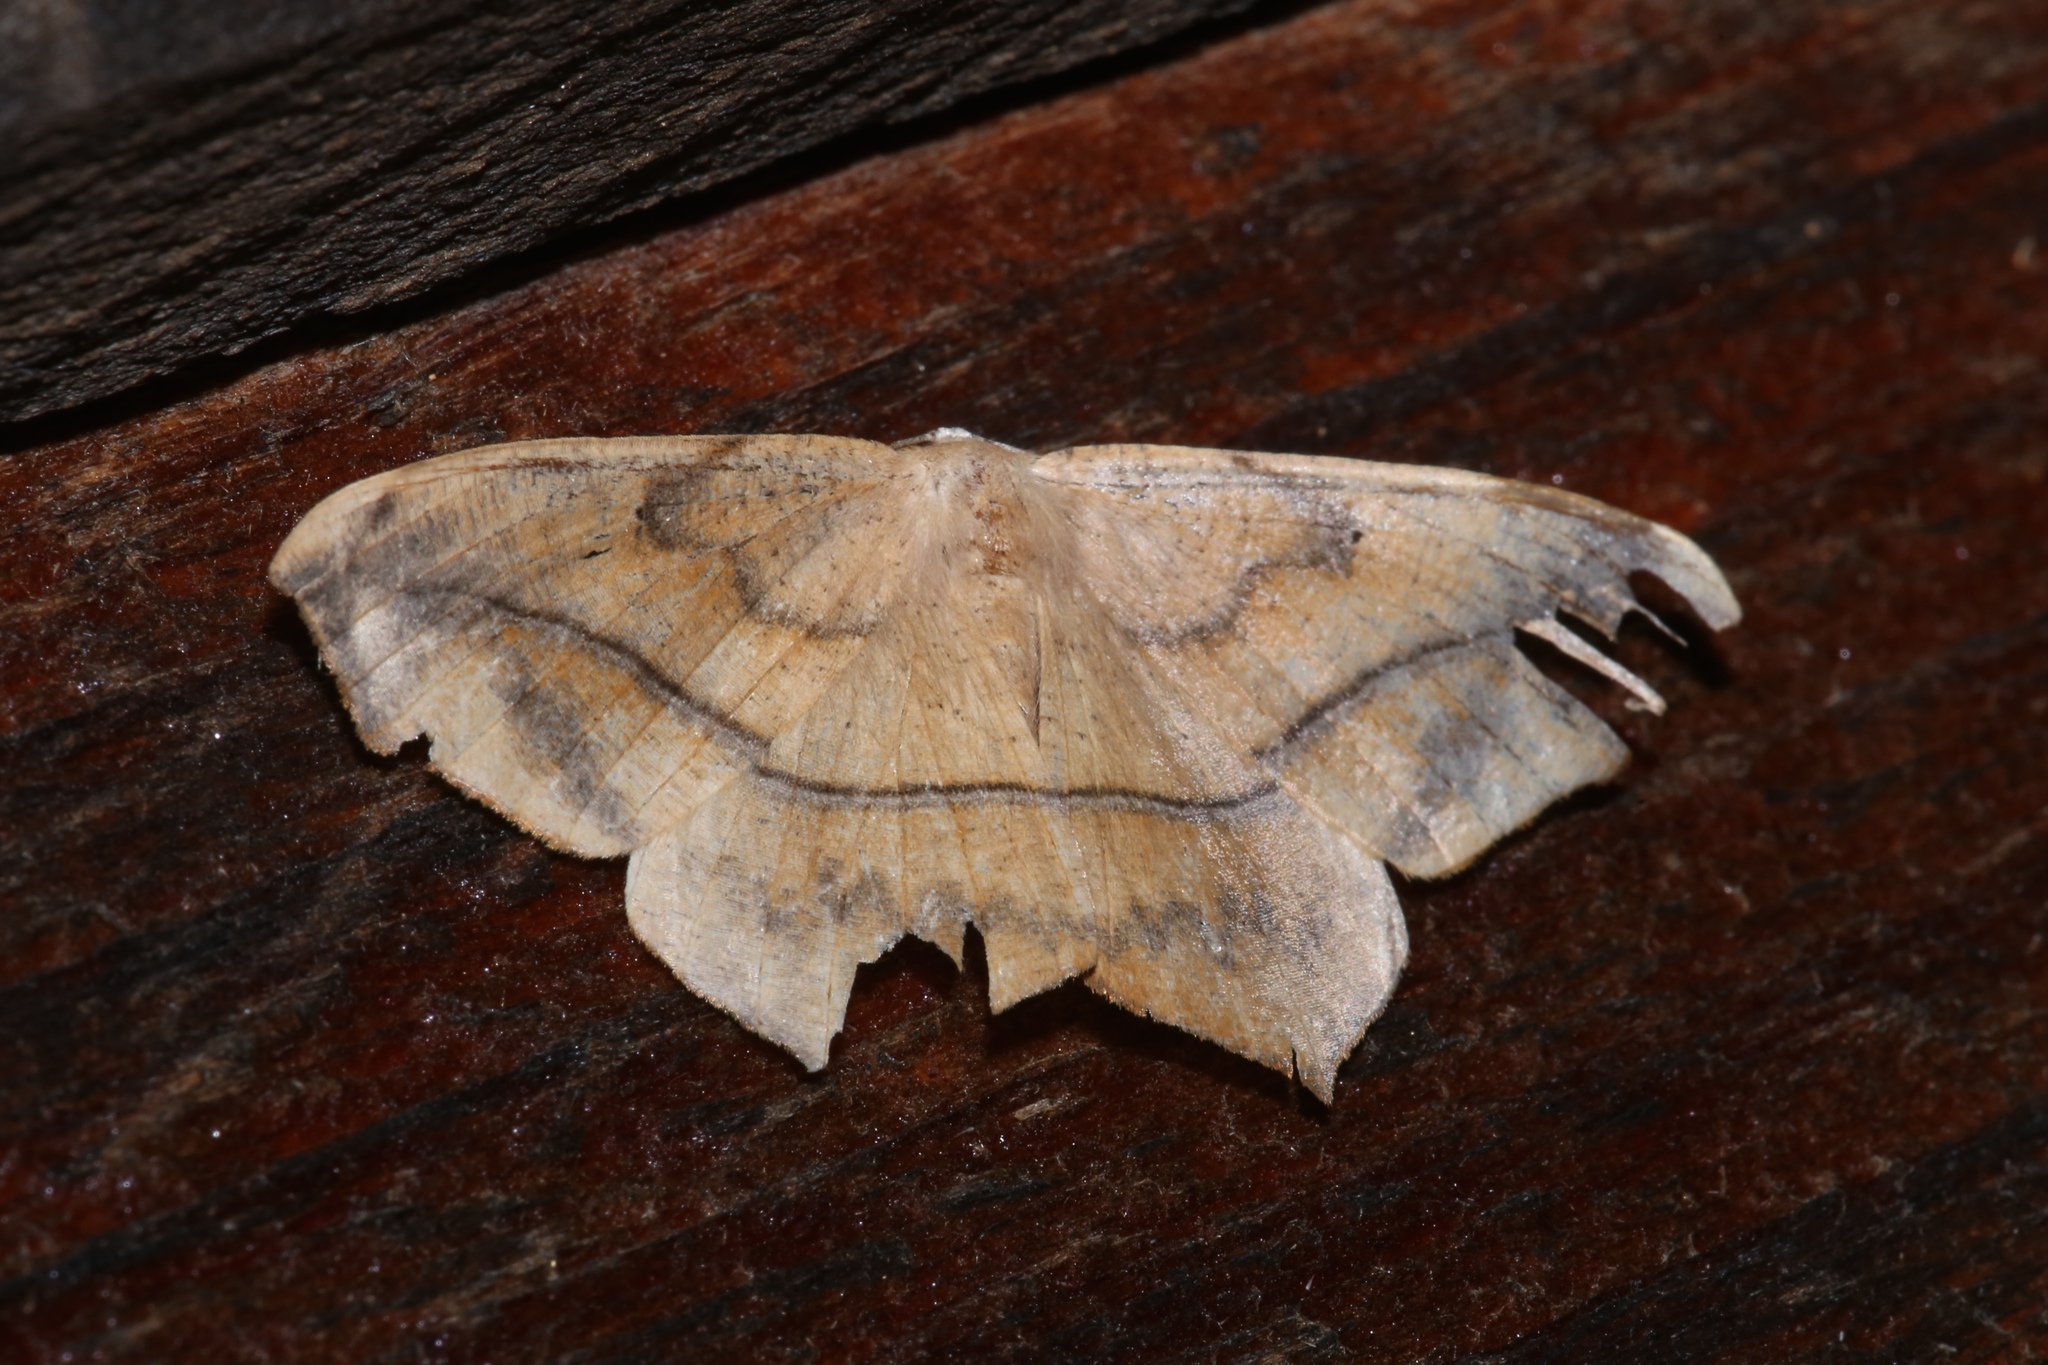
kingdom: Animalia
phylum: Arthropoda
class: Insecta
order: Lepidoptera
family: Geometridae
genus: Prochoerodes
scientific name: Prochoerodes lineola
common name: Large maple spanworm
